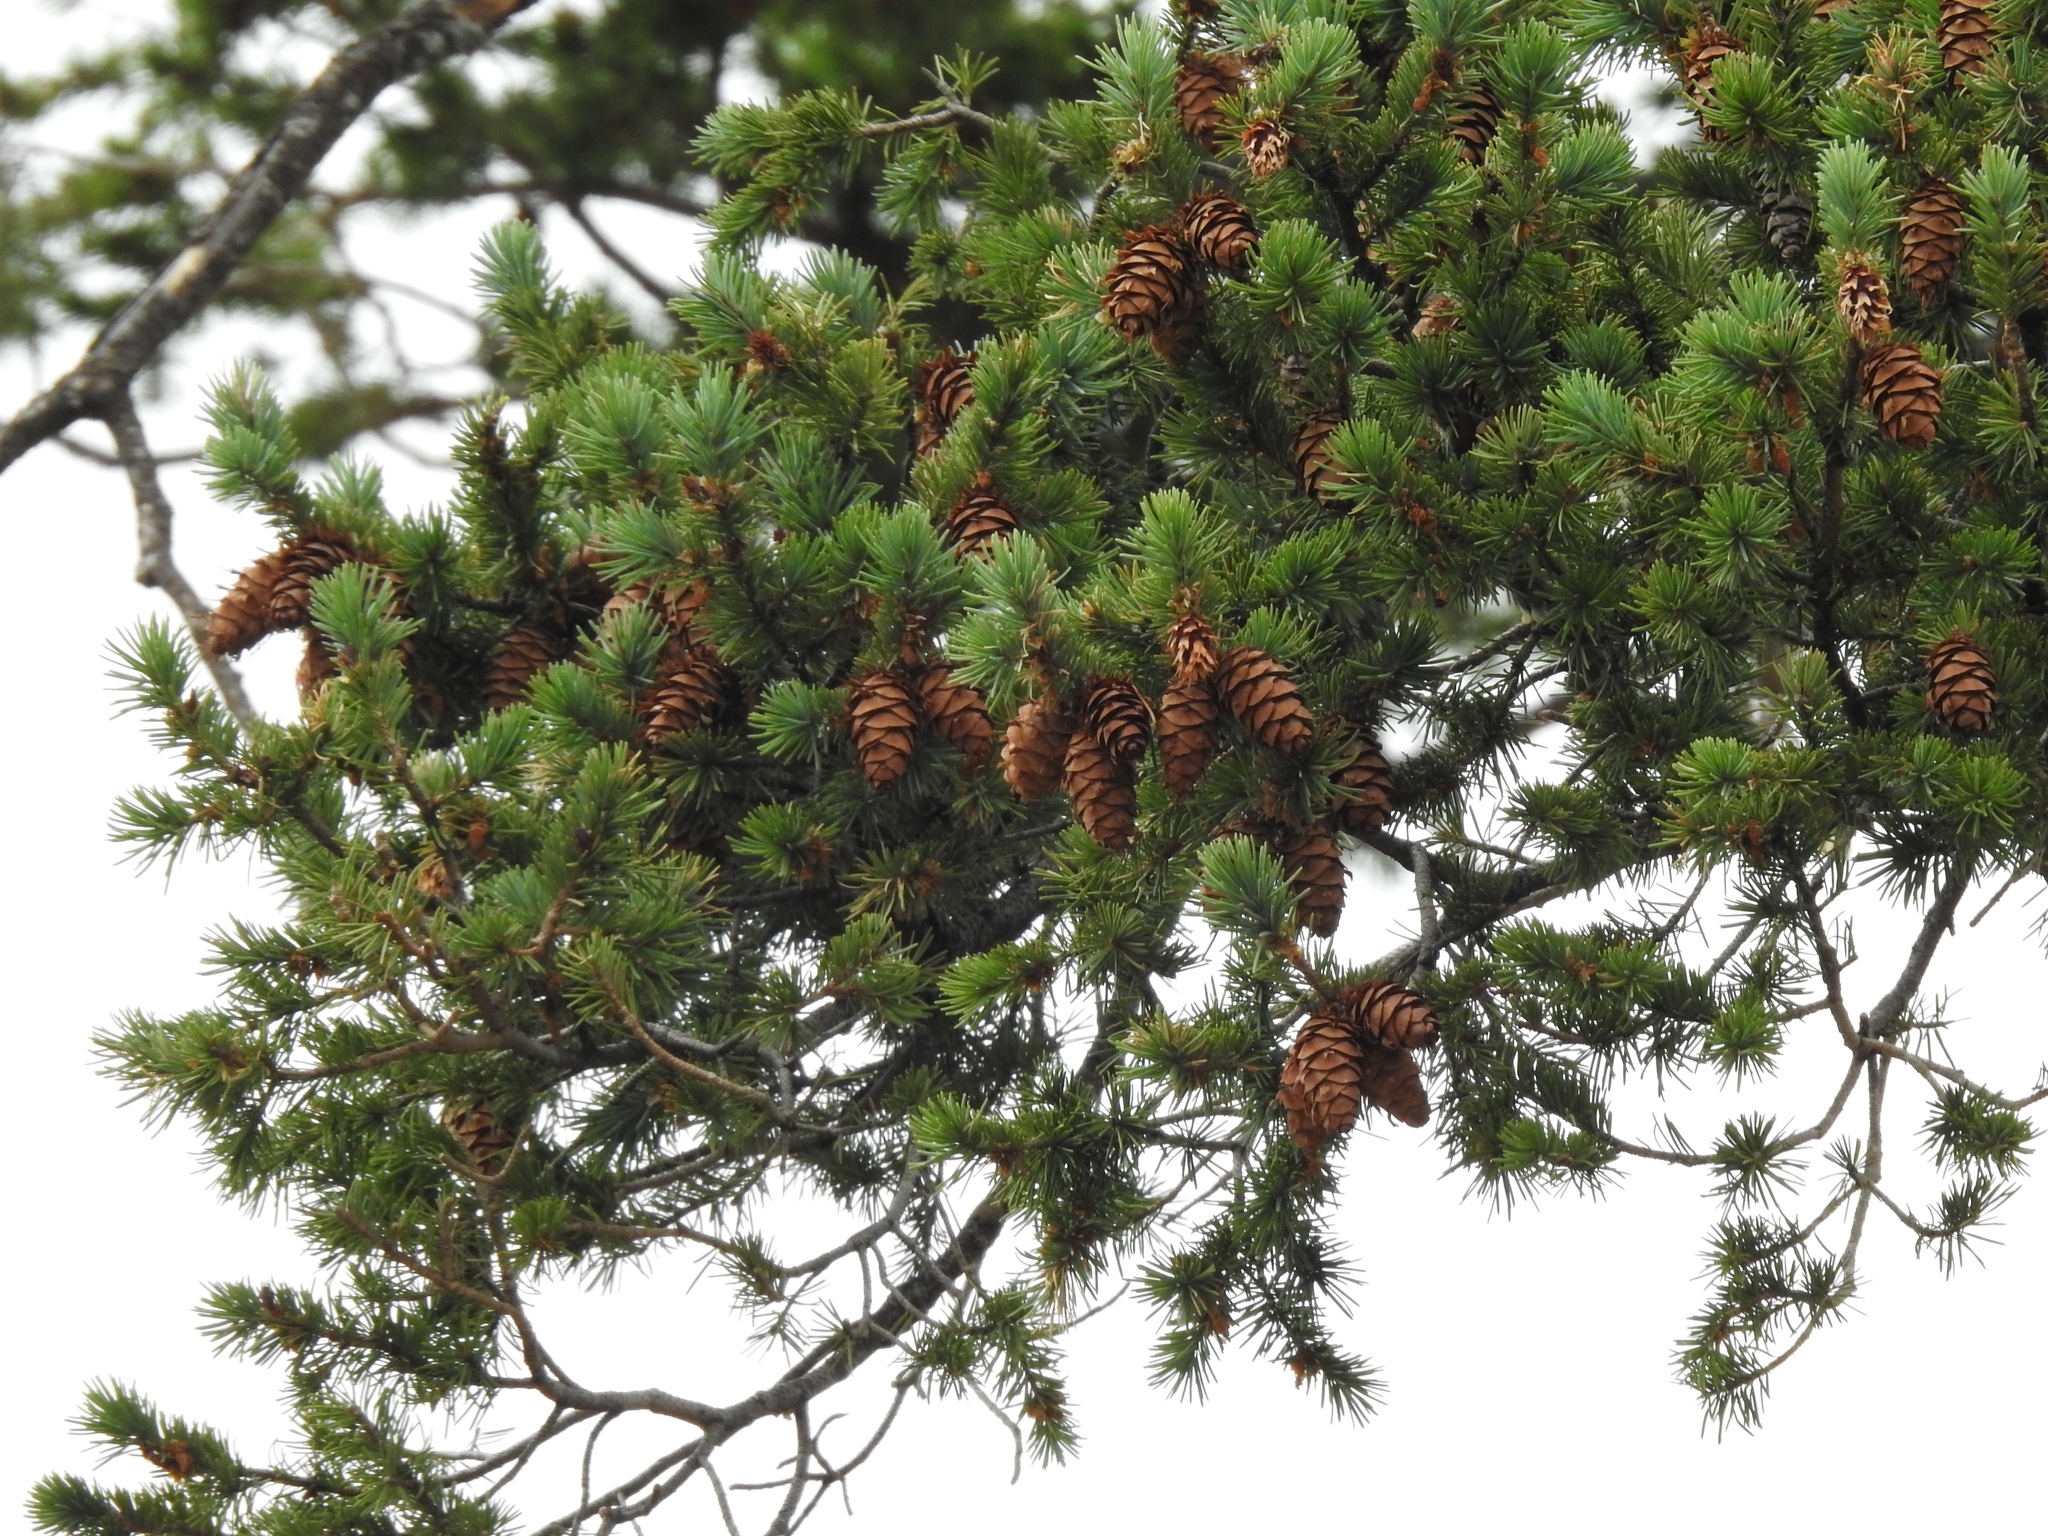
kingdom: Plantae
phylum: Tracheophyta
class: Pinopsida
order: Pinales
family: Pinaceae
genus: Pseudotsuga
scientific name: Pseudotsuga menziesii
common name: Douglas fir
